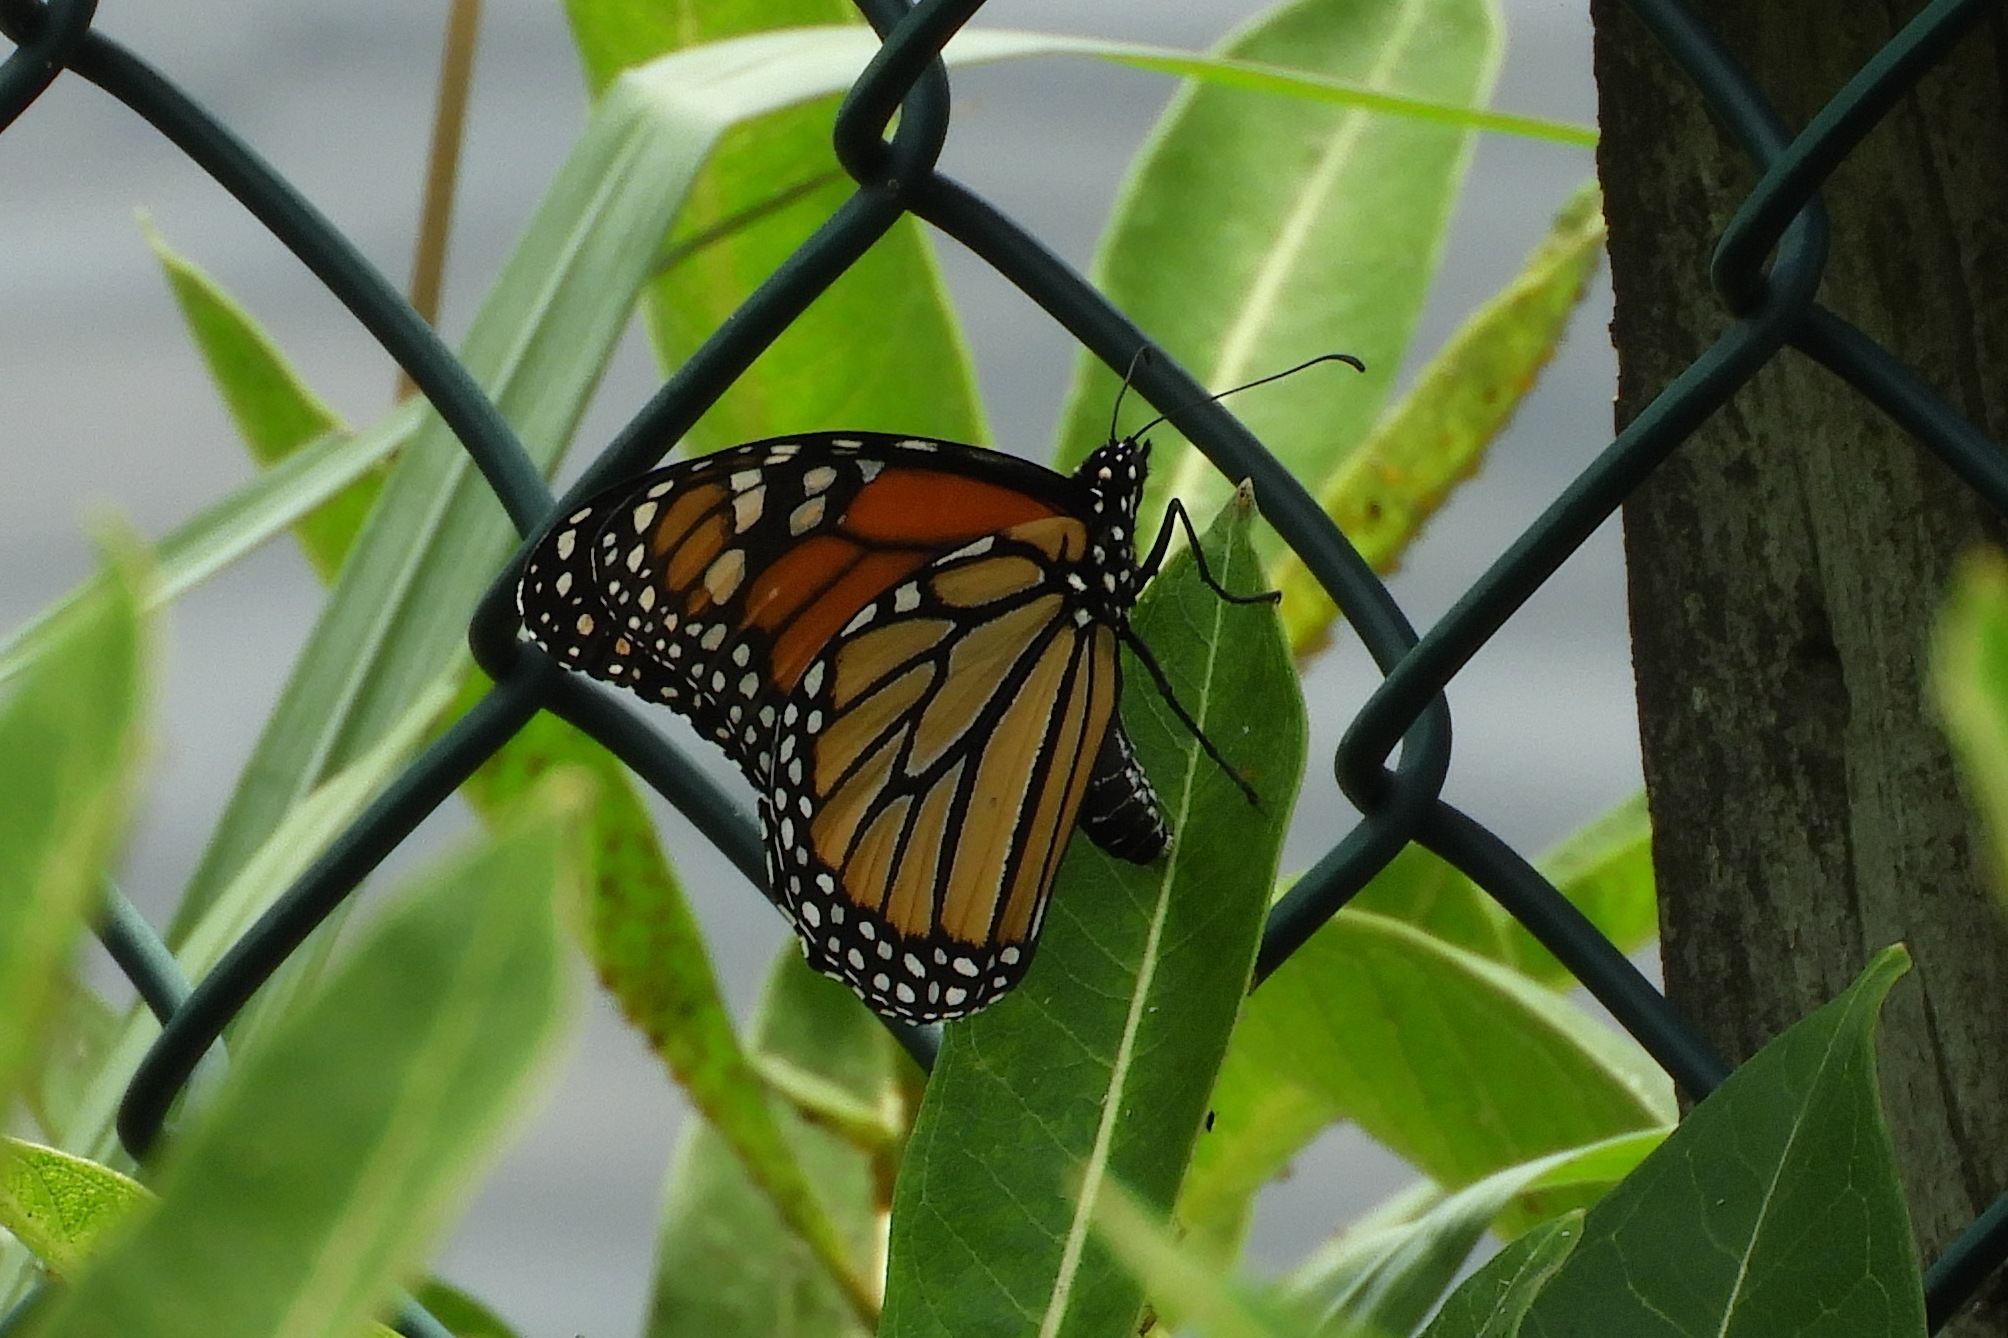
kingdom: Animalia
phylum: Arthropoda
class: Insecta
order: Lepidoptera
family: Nymphalidae
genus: Danaus
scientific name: Danaus plexippus
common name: Monarch
